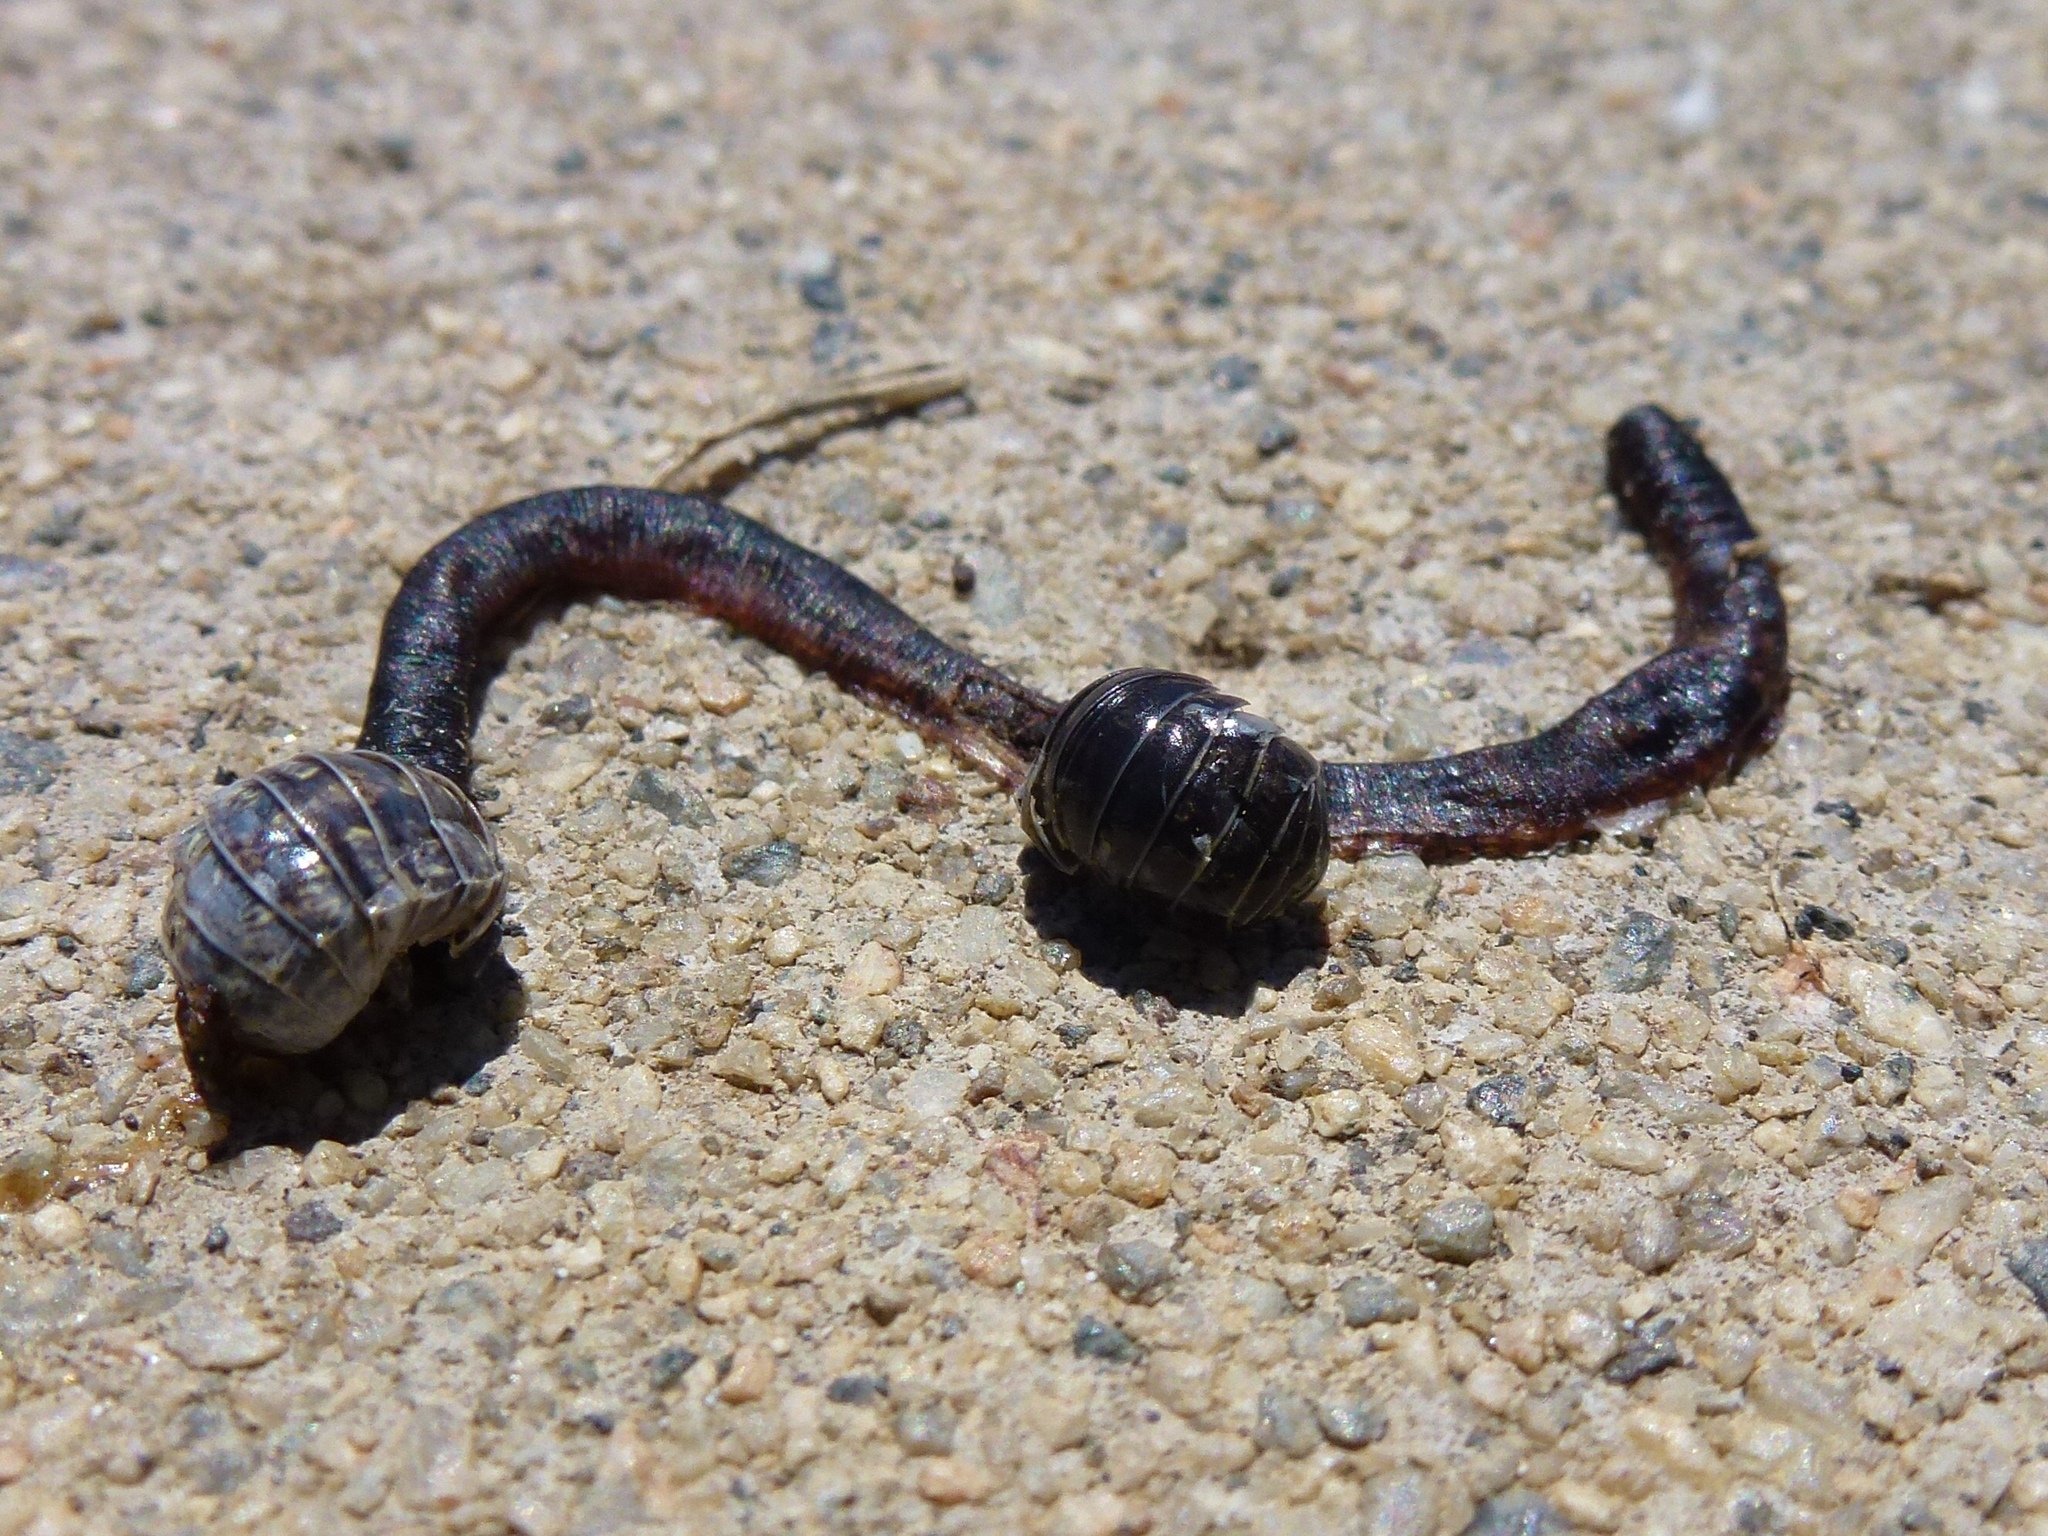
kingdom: Animalia
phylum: Arthropoda
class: Malacostraca
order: Isopoda
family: Armadillidiidae
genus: Armadillidium
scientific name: Armadillidium vulgare
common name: Common pill woodlouse
